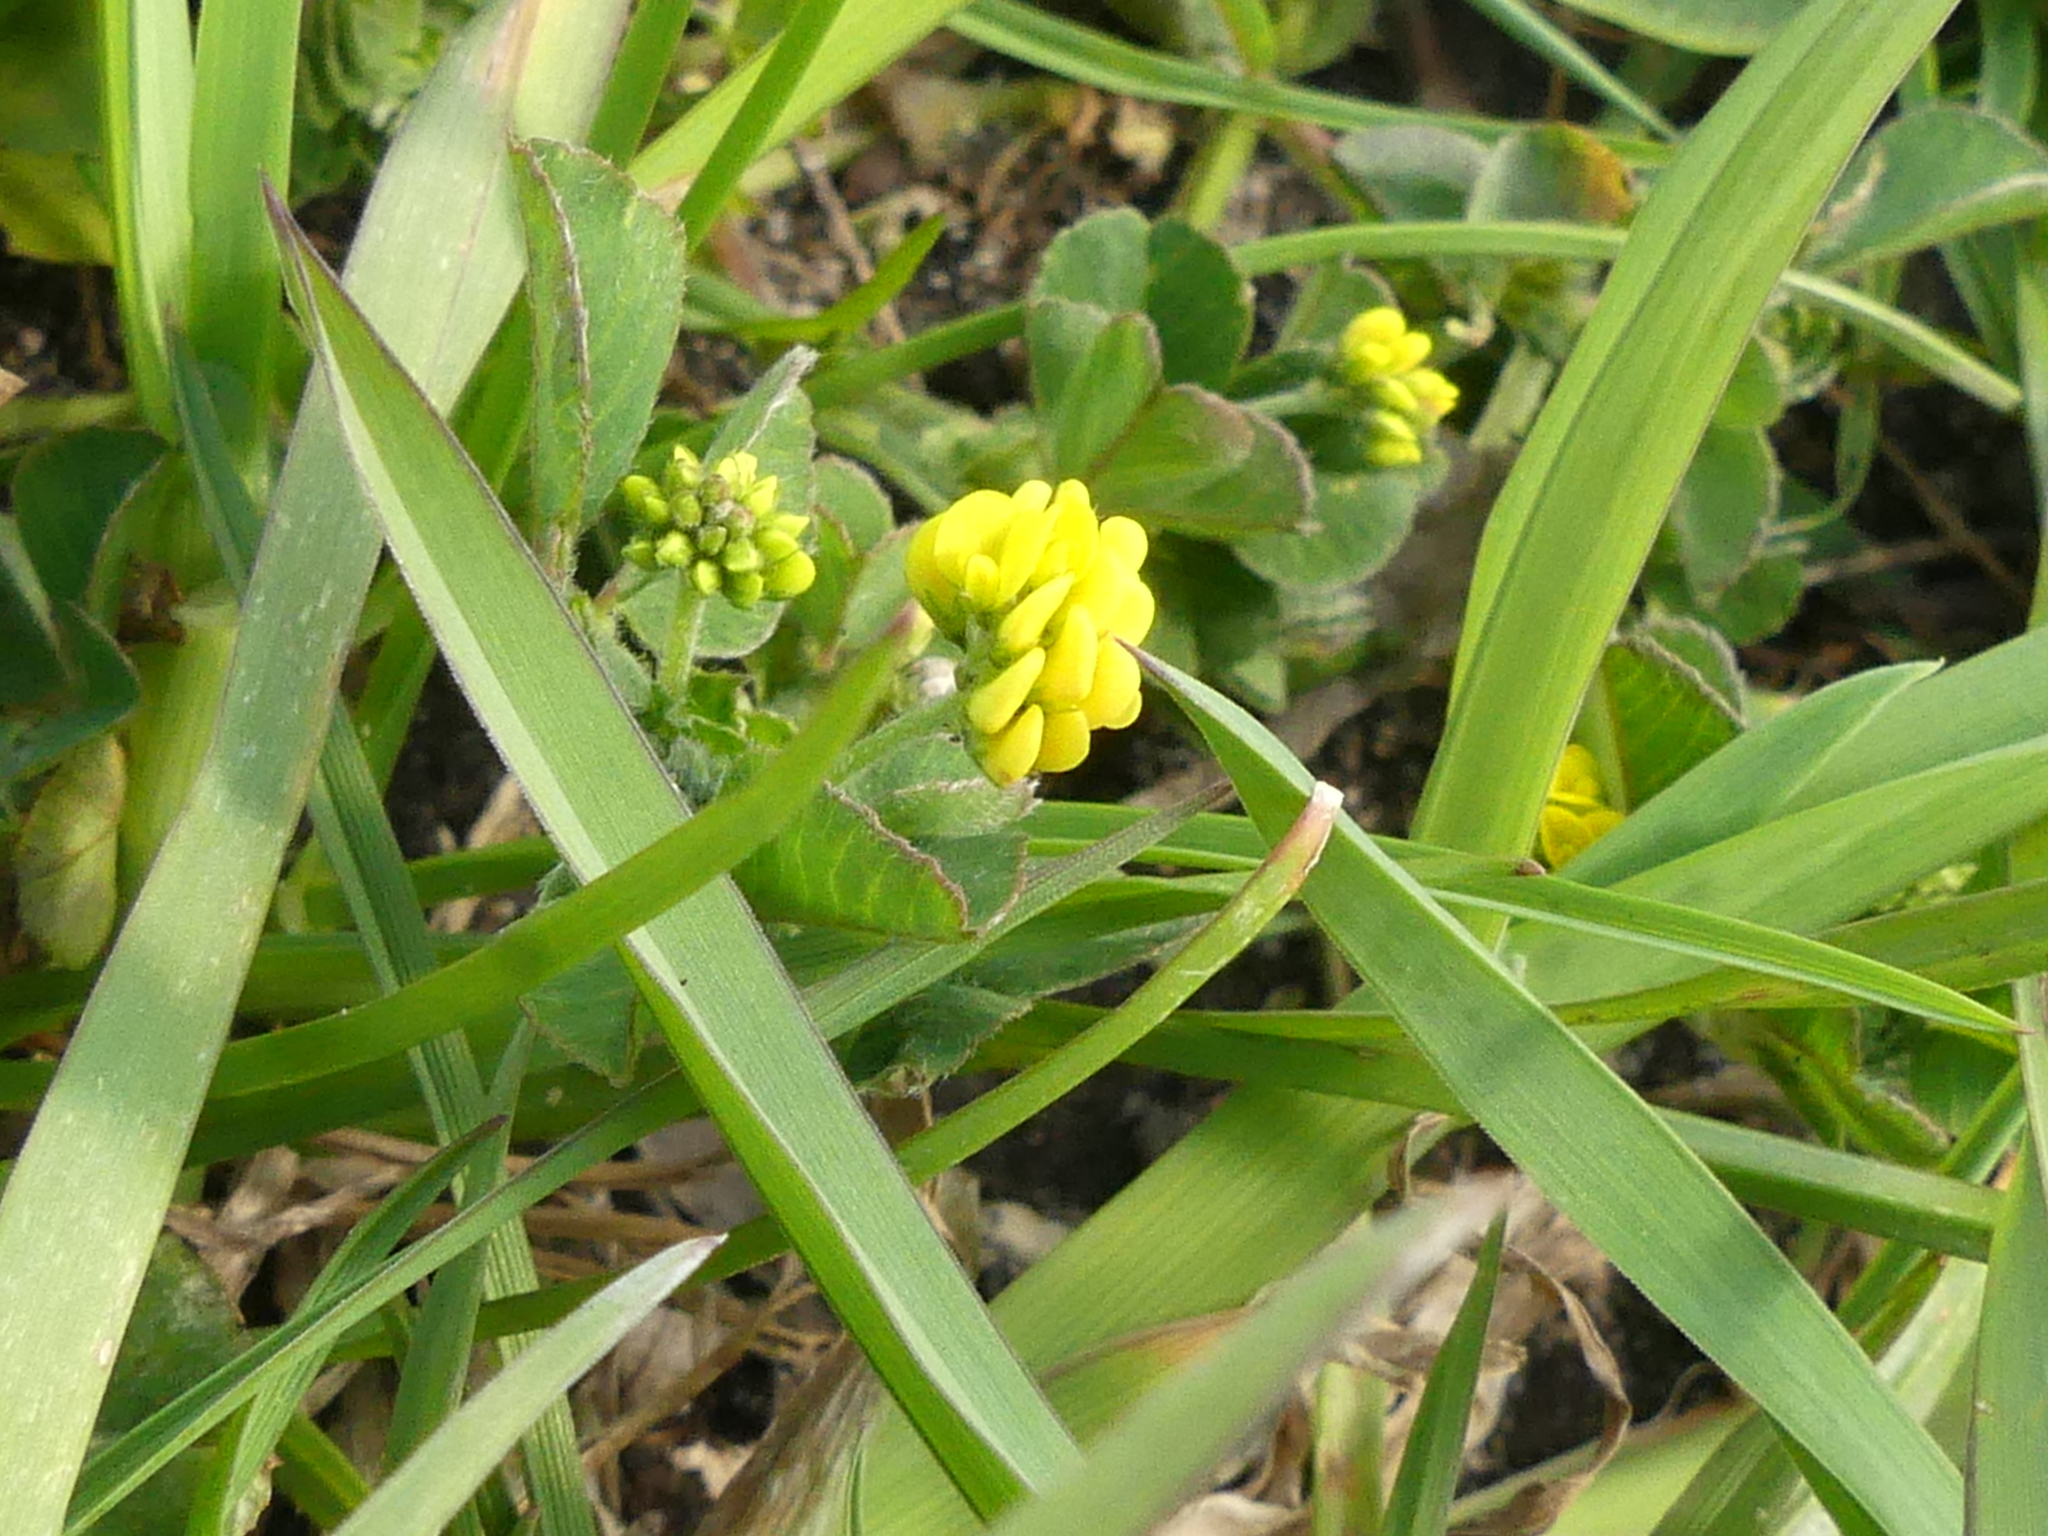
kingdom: Plantae
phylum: Tracheophyta
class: Magnoliopsida
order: Fabales
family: Fabaceae
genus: Medicago
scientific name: Medicago lupulina
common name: Black medick
